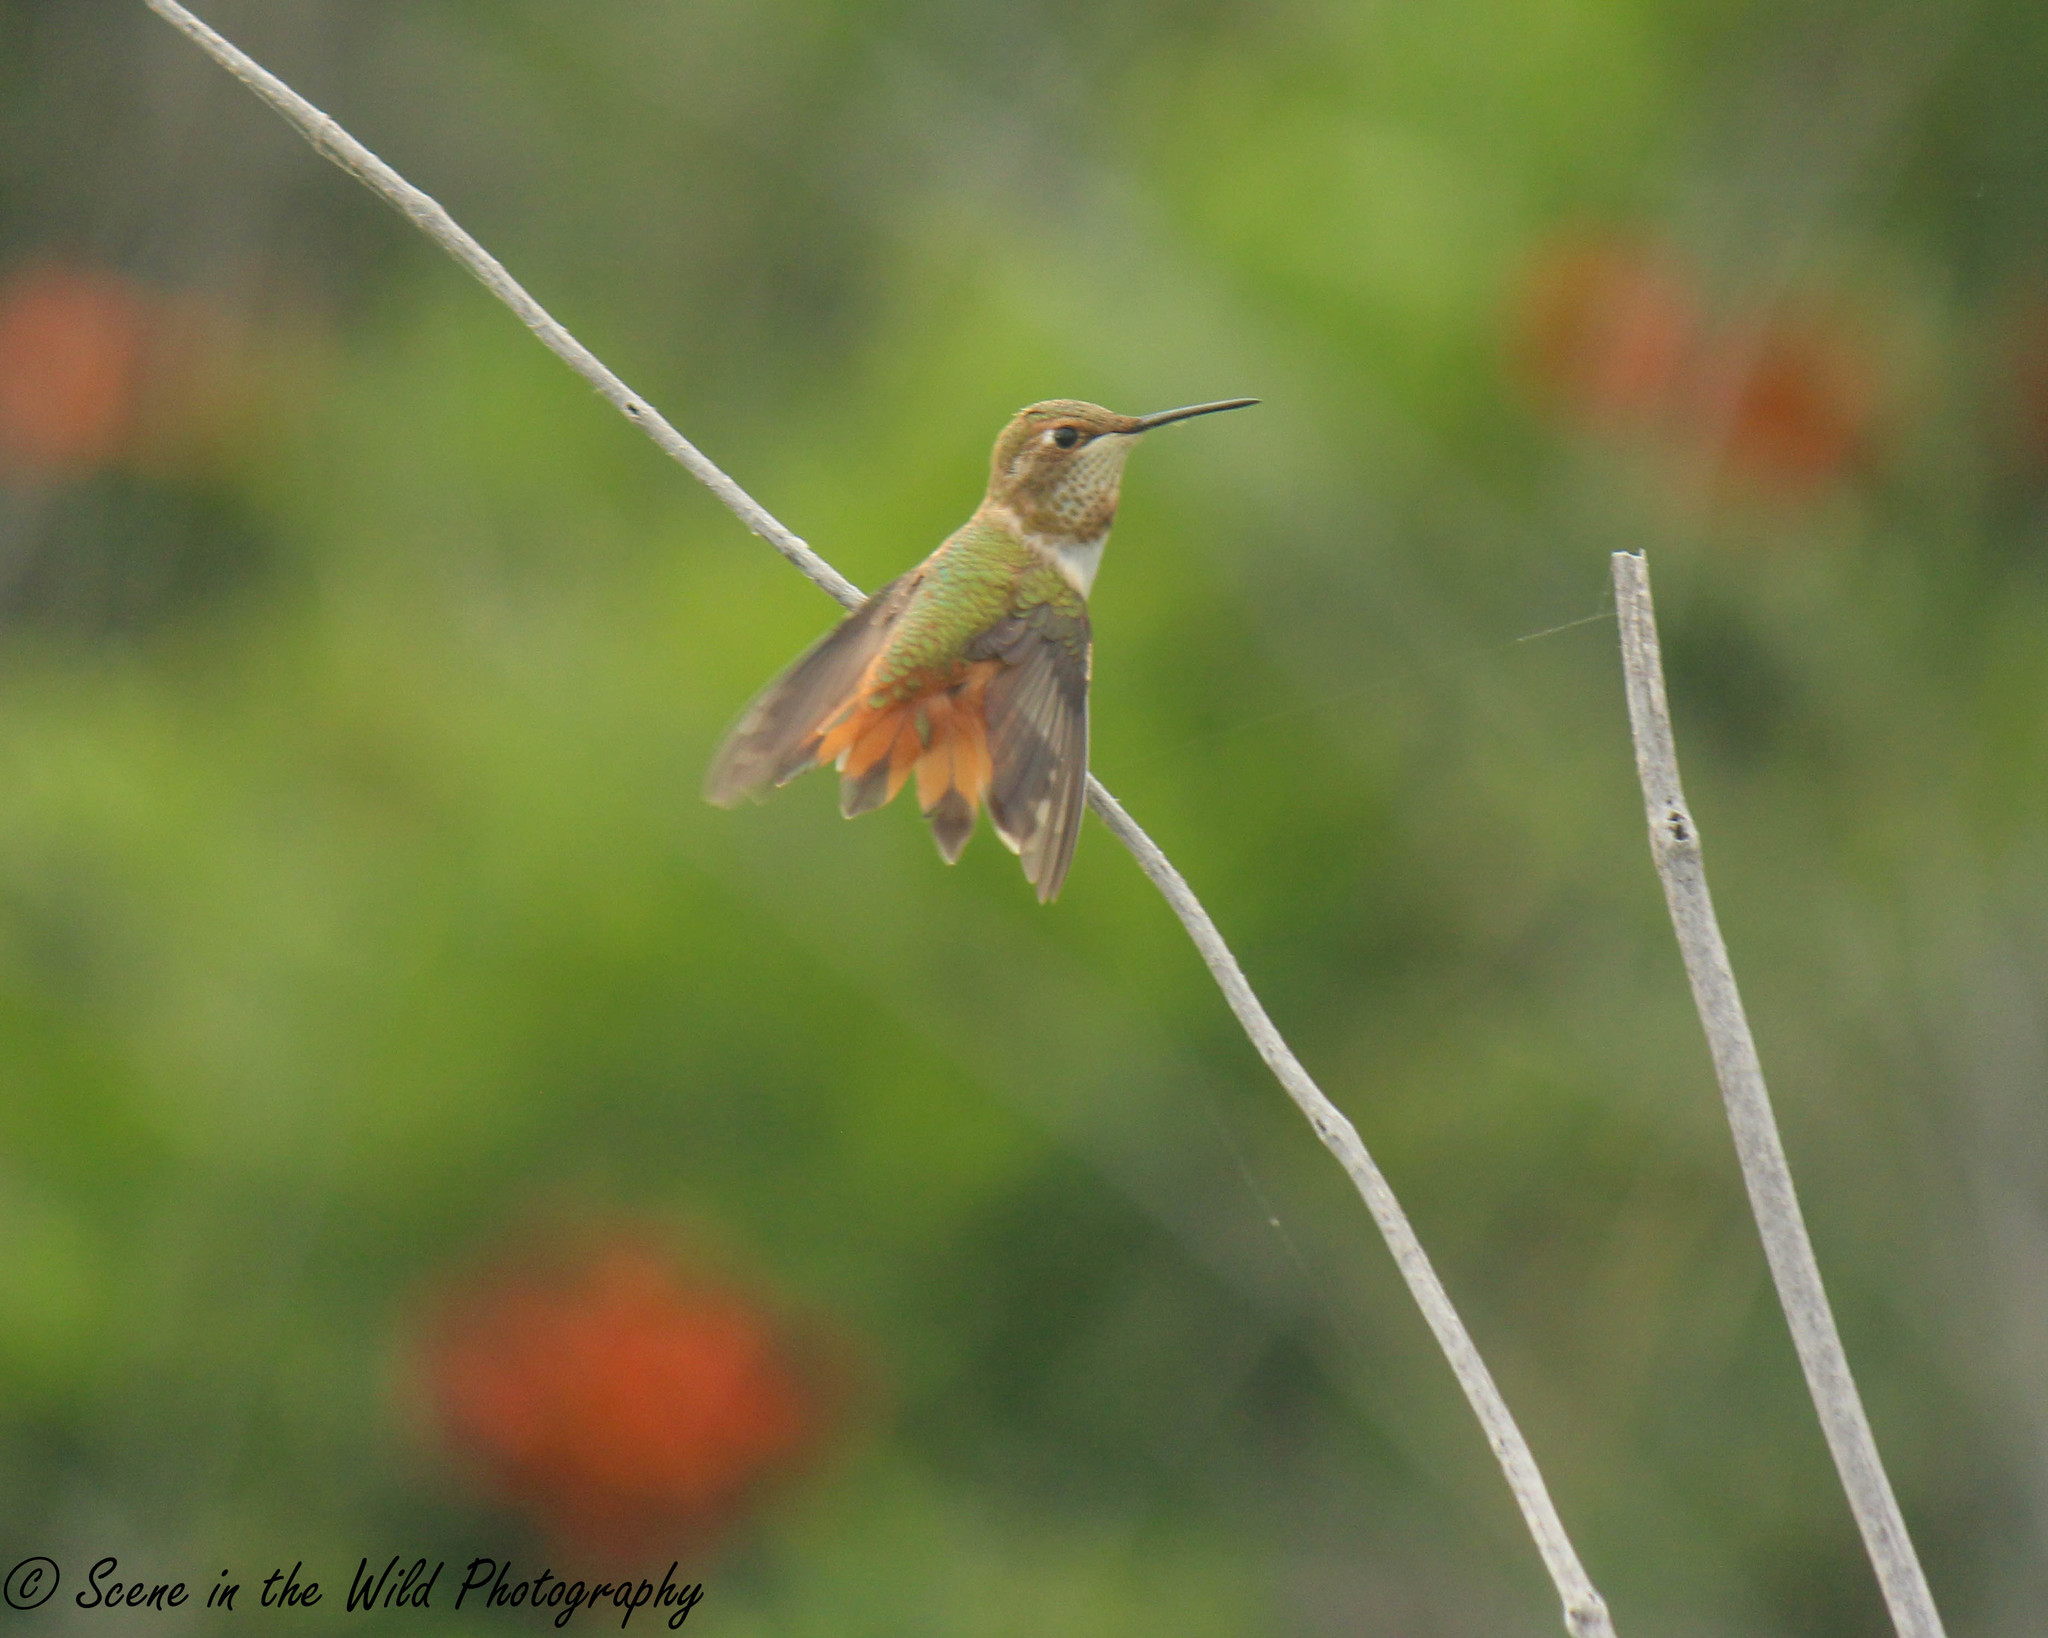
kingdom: Animalia
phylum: Chordata
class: Aves
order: Apodiformes
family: Trochilidae
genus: Selasphorus
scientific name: Selasphorus rufus
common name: Rufous hummingbird
